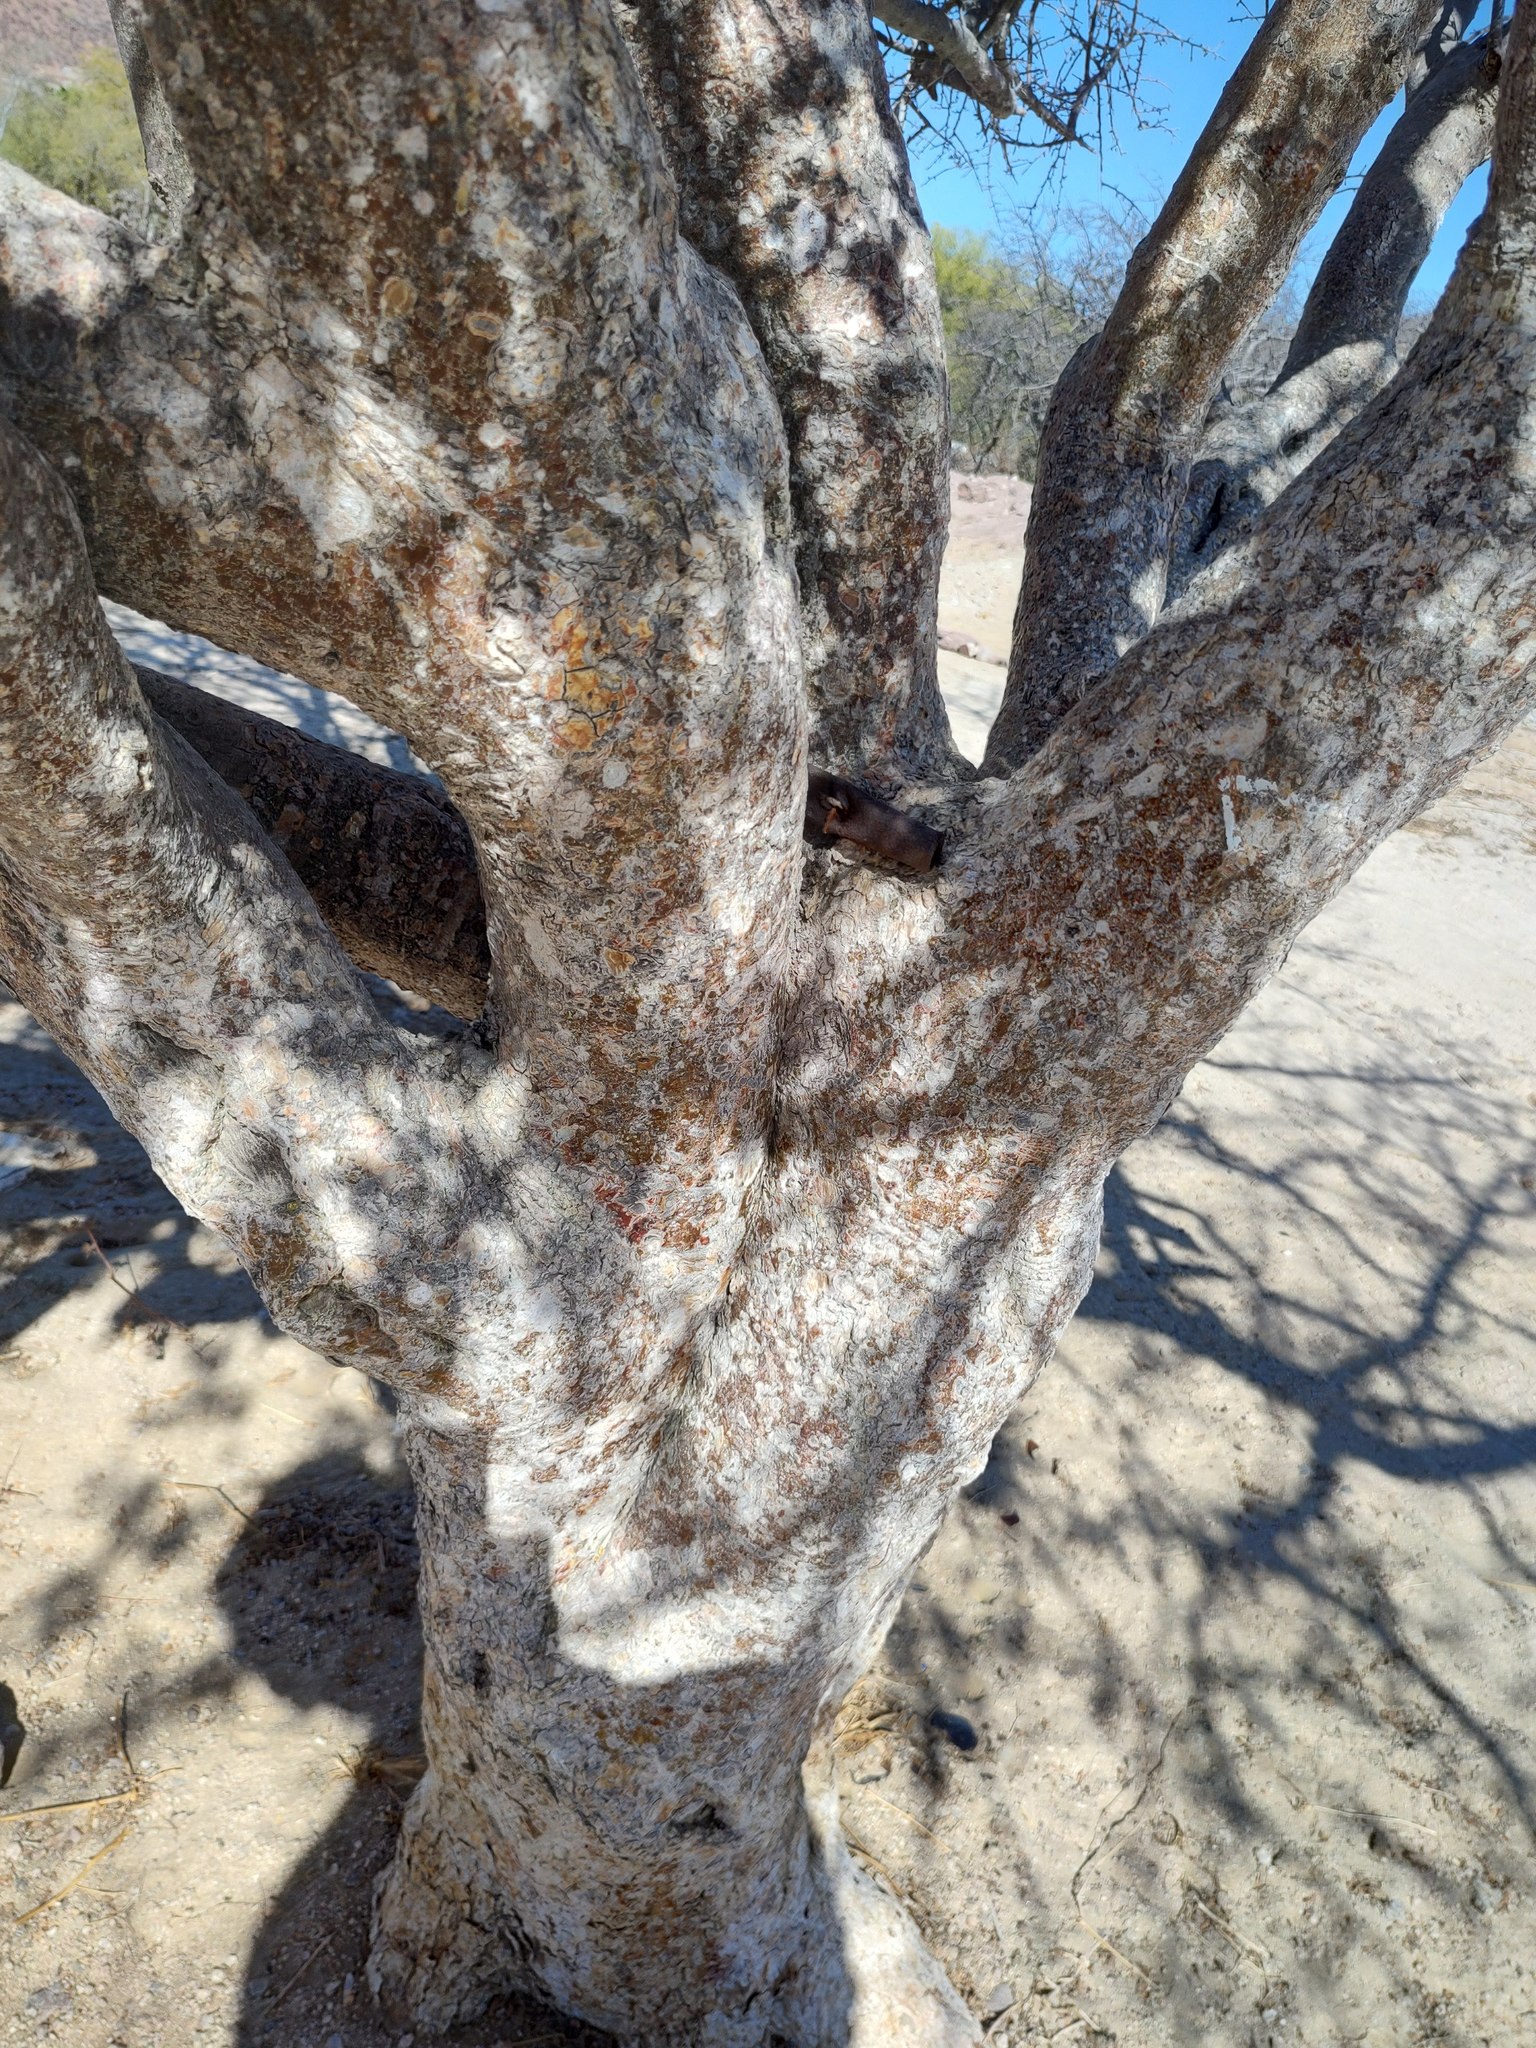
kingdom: Plantae
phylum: Tracheophyta
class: Magnoliopsida
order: Sapindales
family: Burseraceae
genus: Bursera
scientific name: Bursera filicifolia
